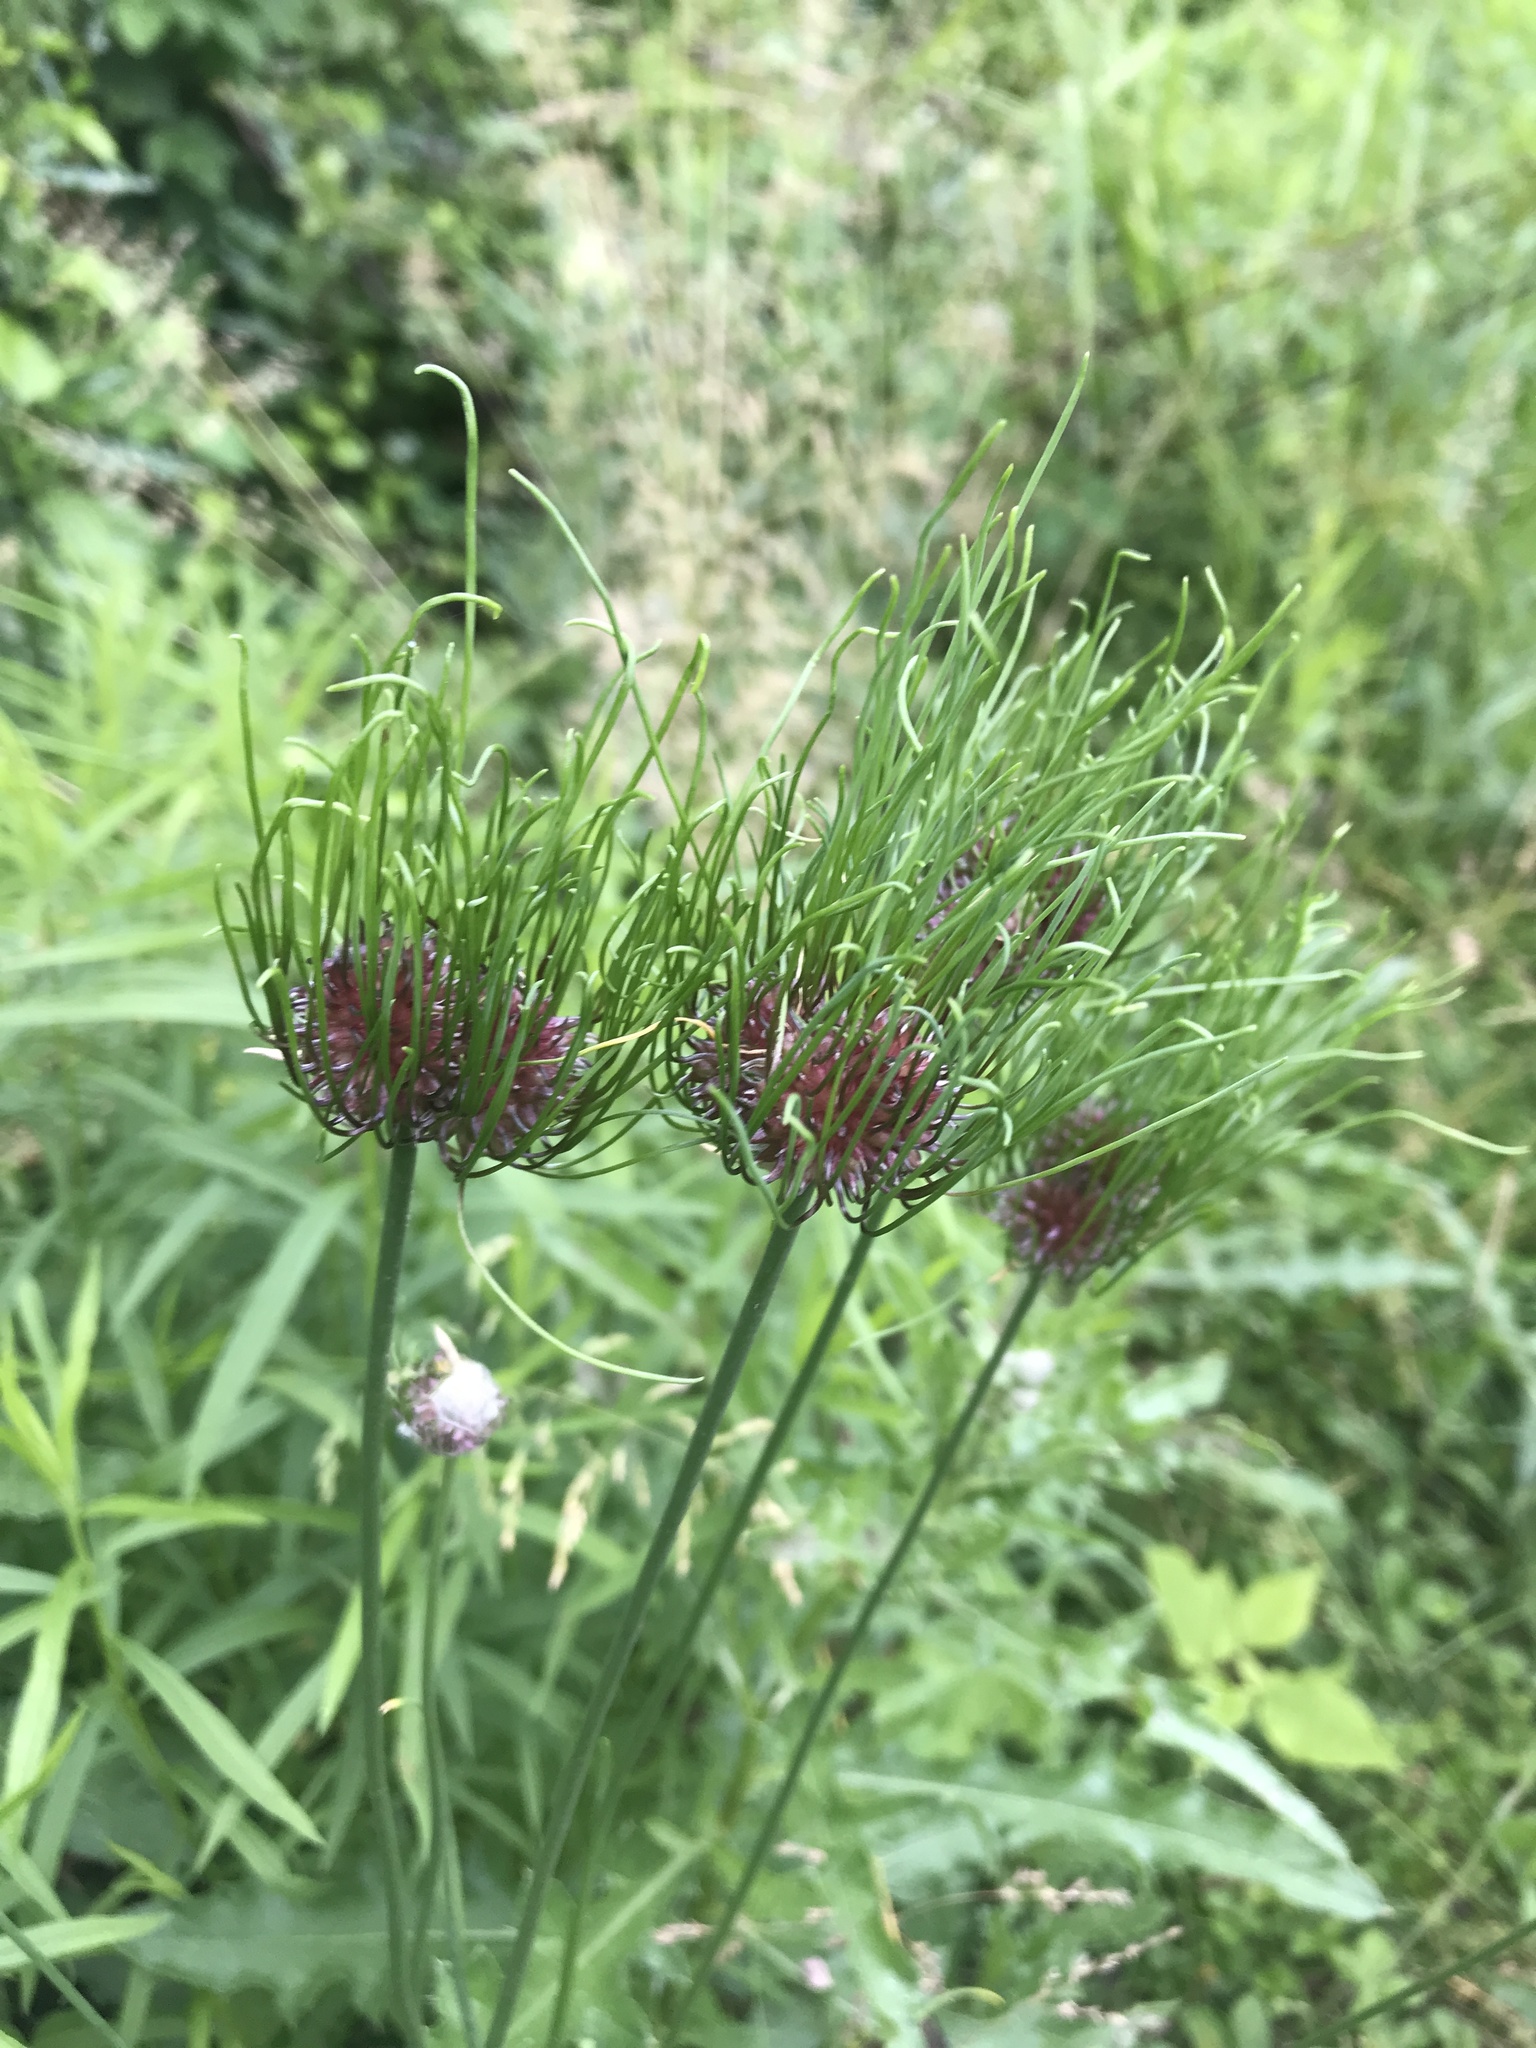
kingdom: Plantae
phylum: Tracheophyta
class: Liliopsida
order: Asparagales
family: Amaryllidaceae
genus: Allium
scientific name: Allium vineale
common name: Crow garlic
